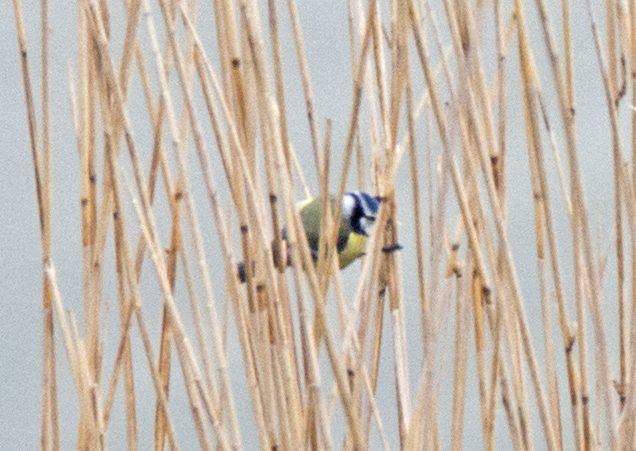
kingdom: Animalia
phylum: Chordata
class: Aves
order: Passeriformes
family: Paridae
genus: Cyanistes
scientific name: Cyanistes caeruleus
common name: Eurasian blue tit
